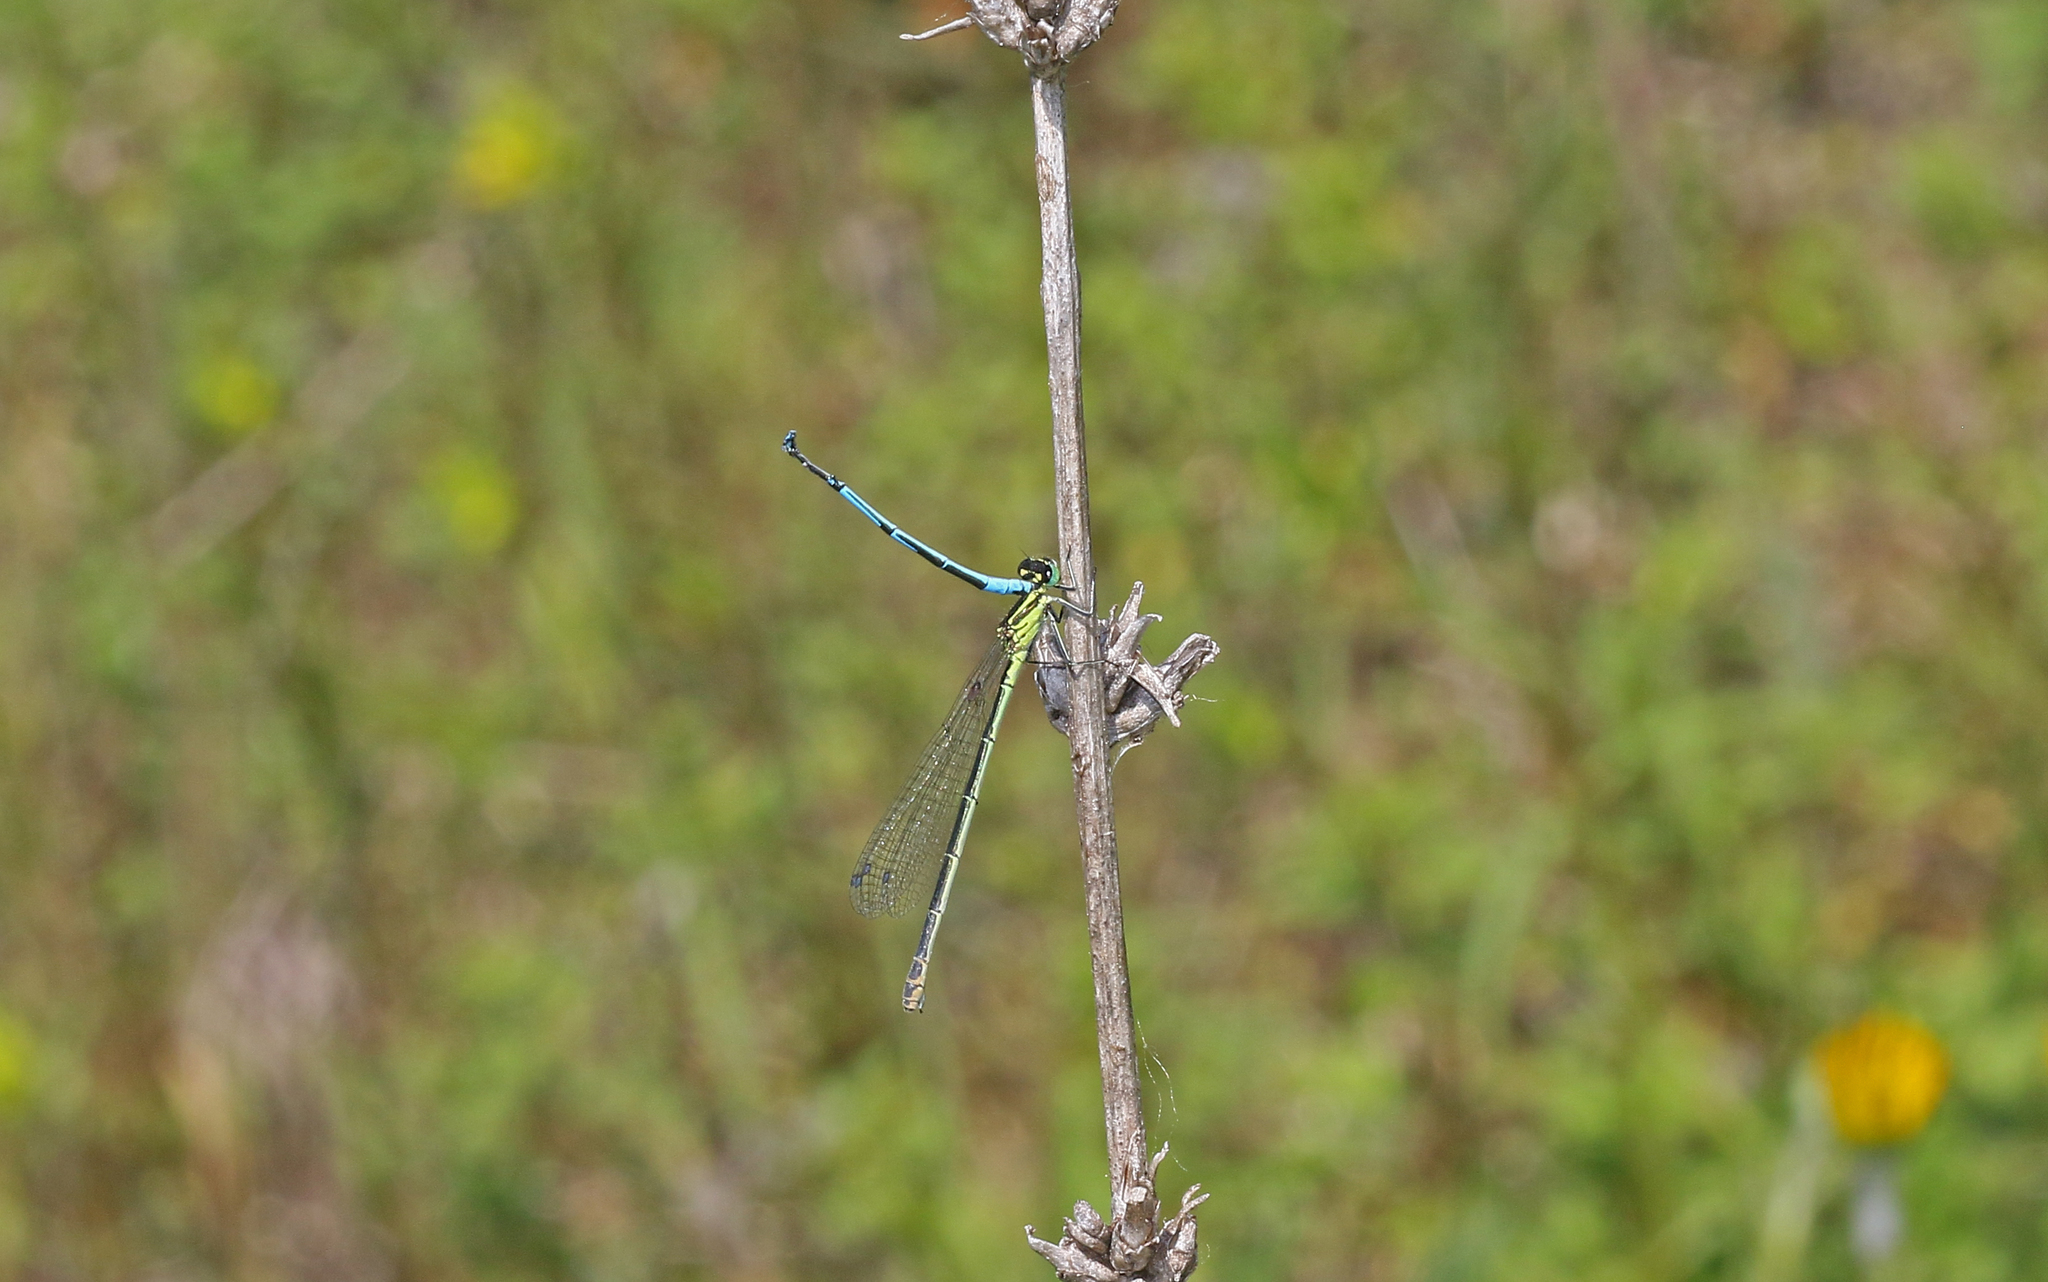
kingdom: Animalia
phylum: Arthropoda
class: Insecta
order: Odonata
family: Coenagrionidae
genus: Coenagrion
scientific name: Coenagrion puella
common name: Azure damselfly
